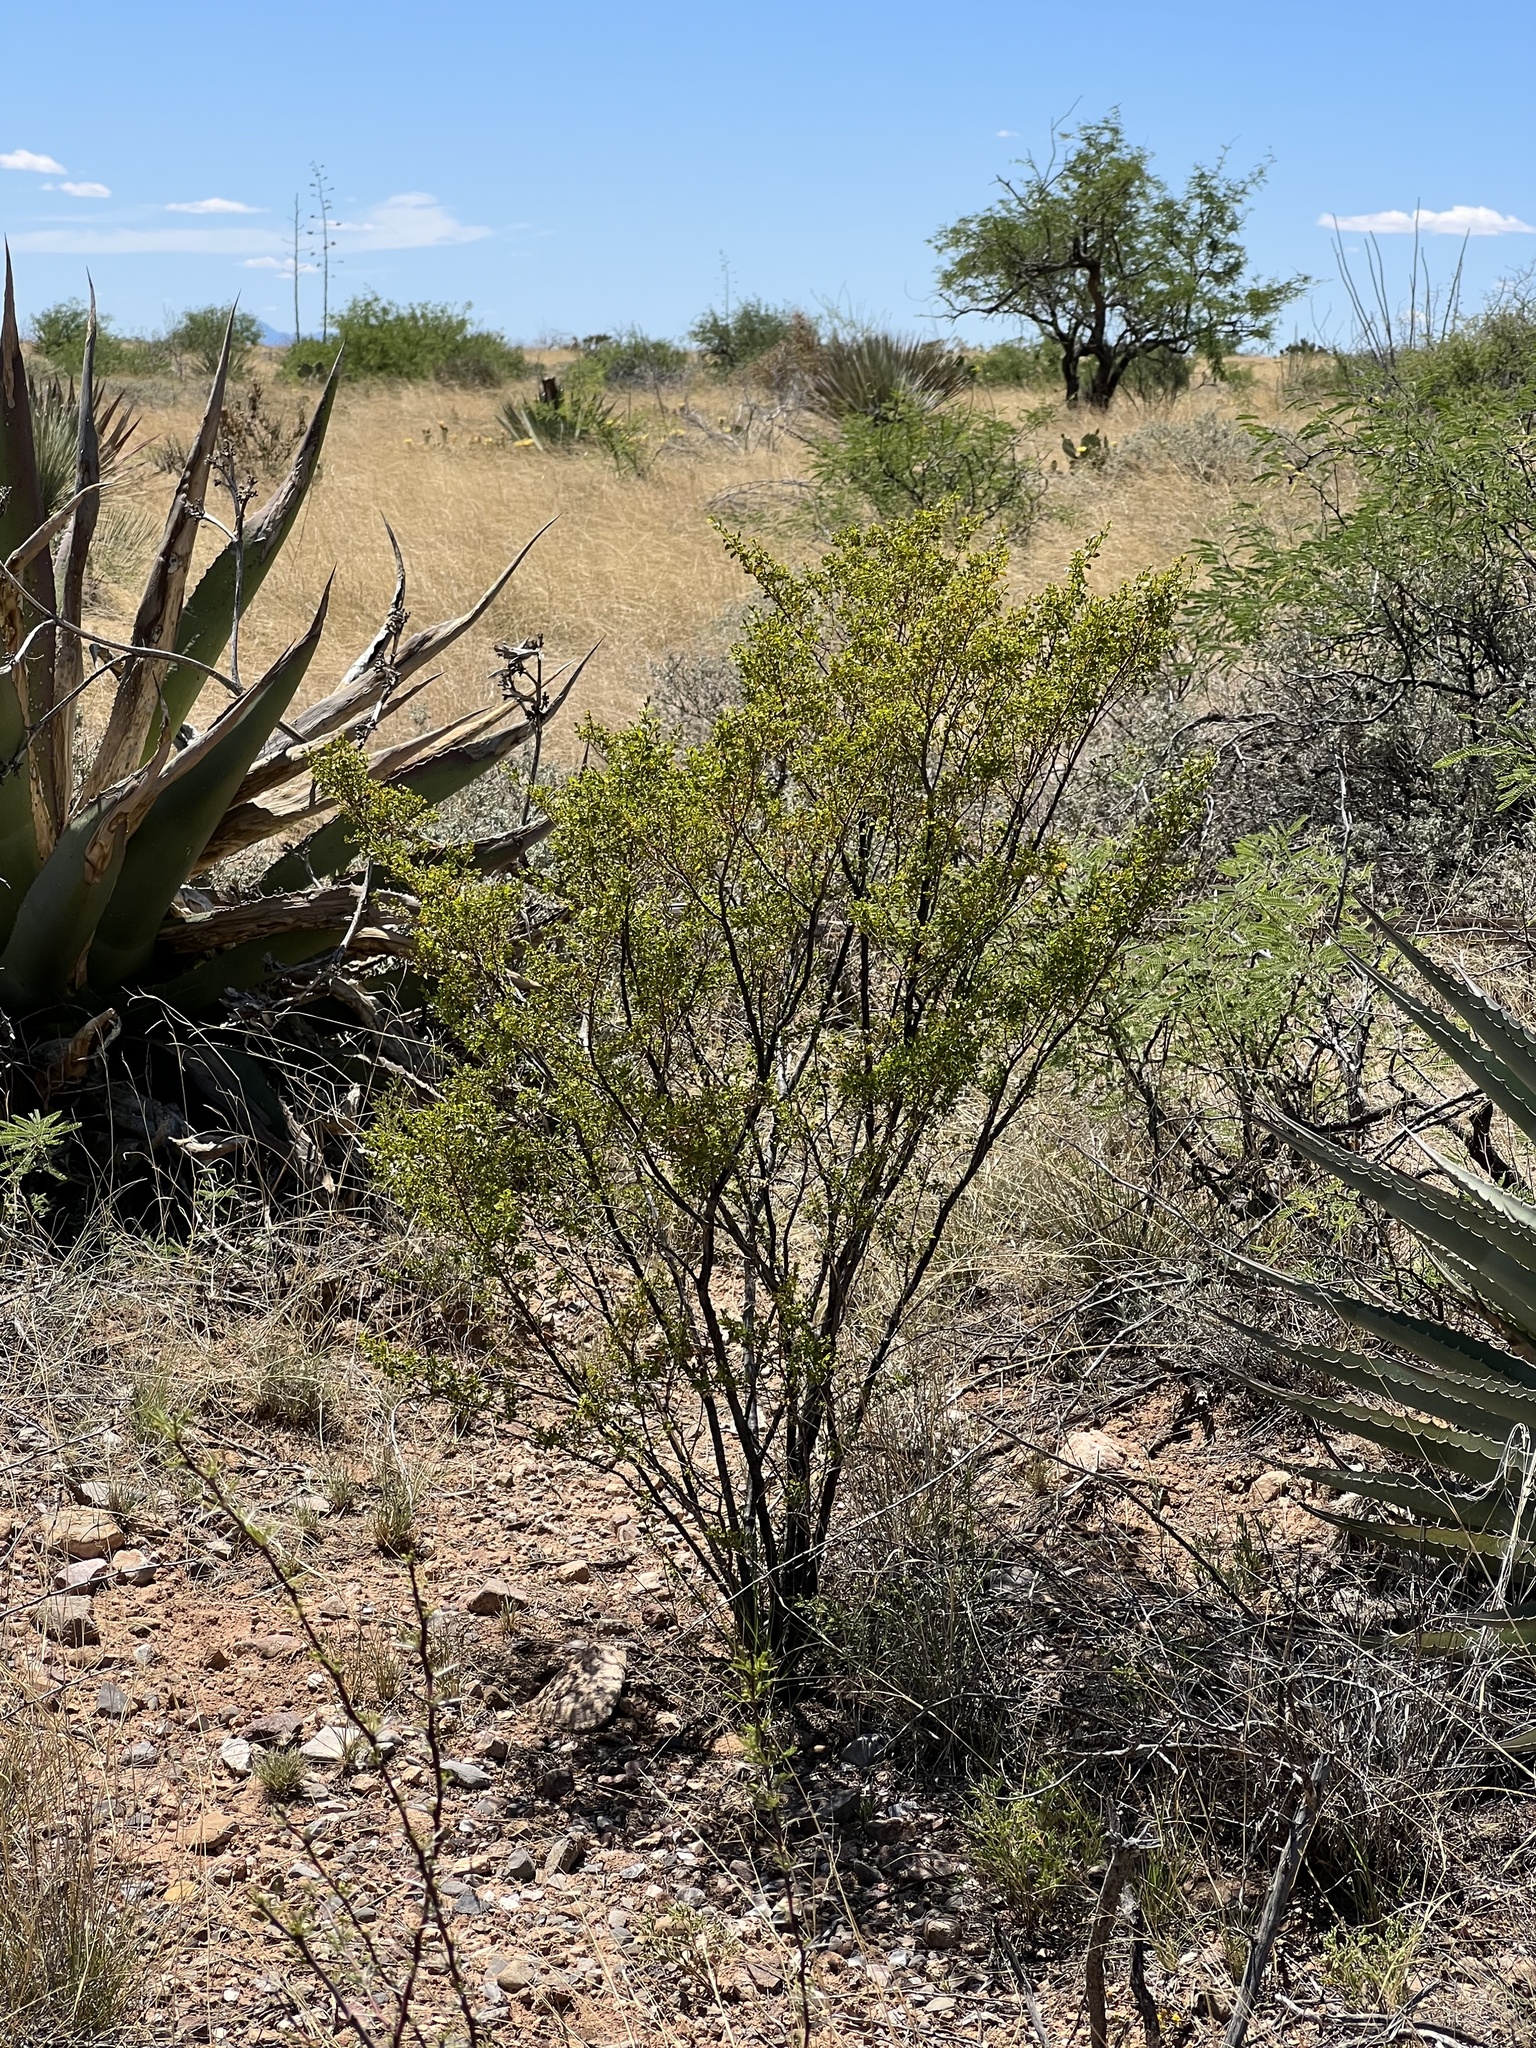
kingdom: Plantae
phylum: Tracheophyta
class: Magnoliopsida
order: Zygophyllales
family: Zygophyllaceae
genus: Larrea
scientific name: Larrea tridentata
